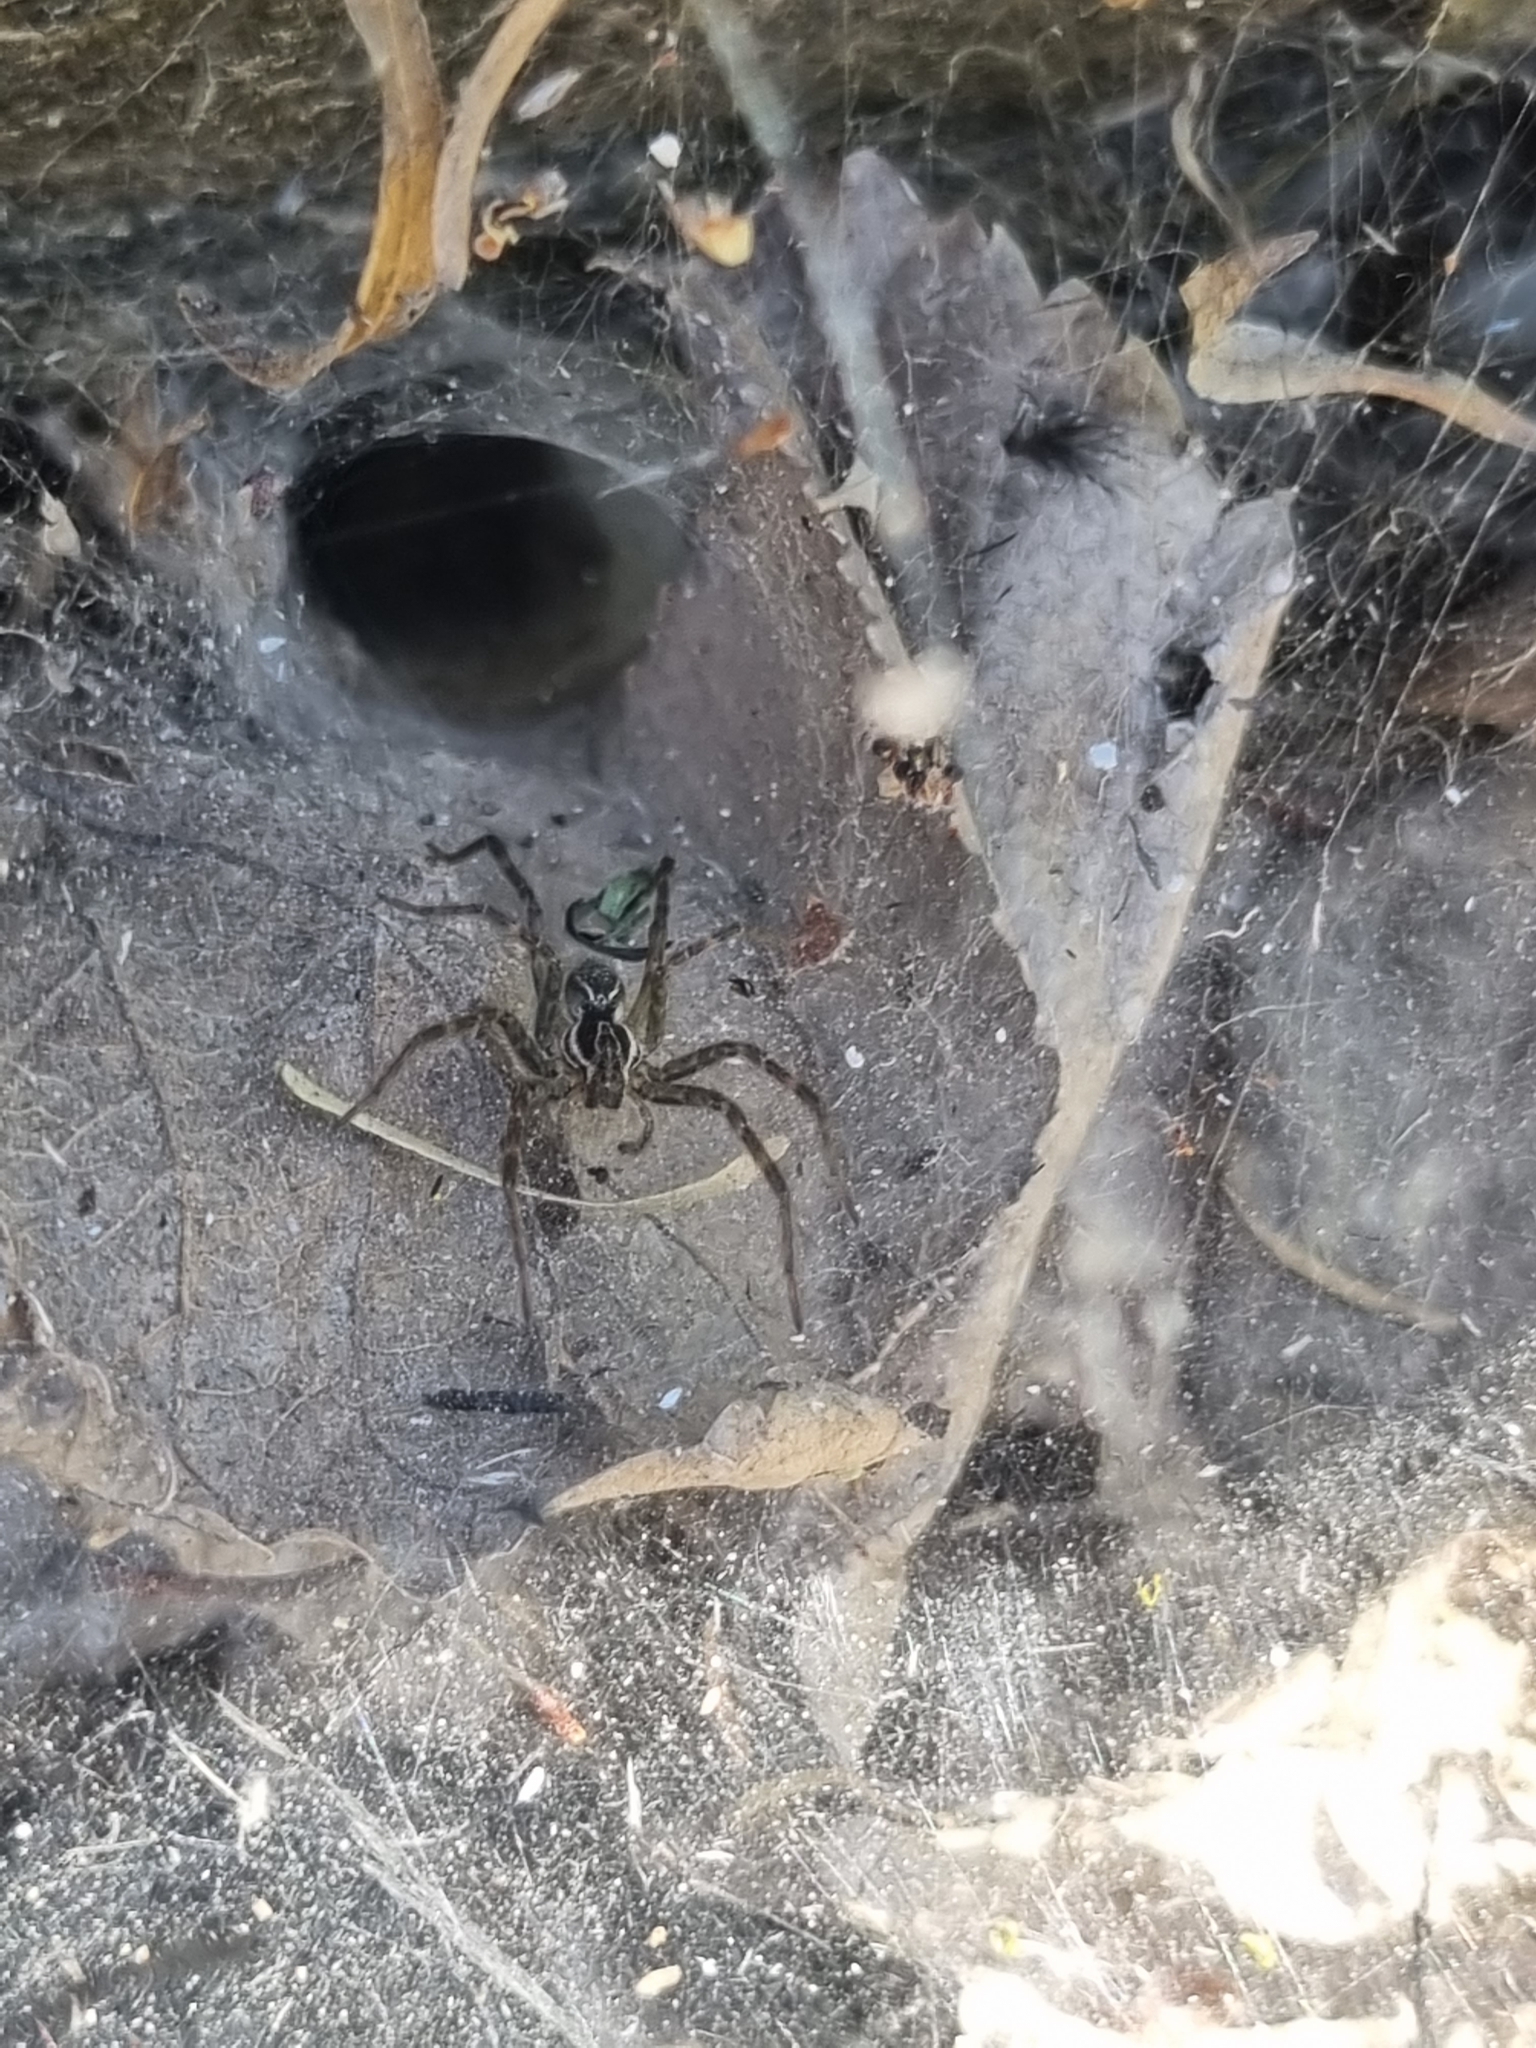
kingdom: Animalia
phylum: Arthropoda
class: Arachnida
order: Araneae
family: Lycosidae
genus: Aglaoctenus
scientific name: Aglaoctenus lagotis
